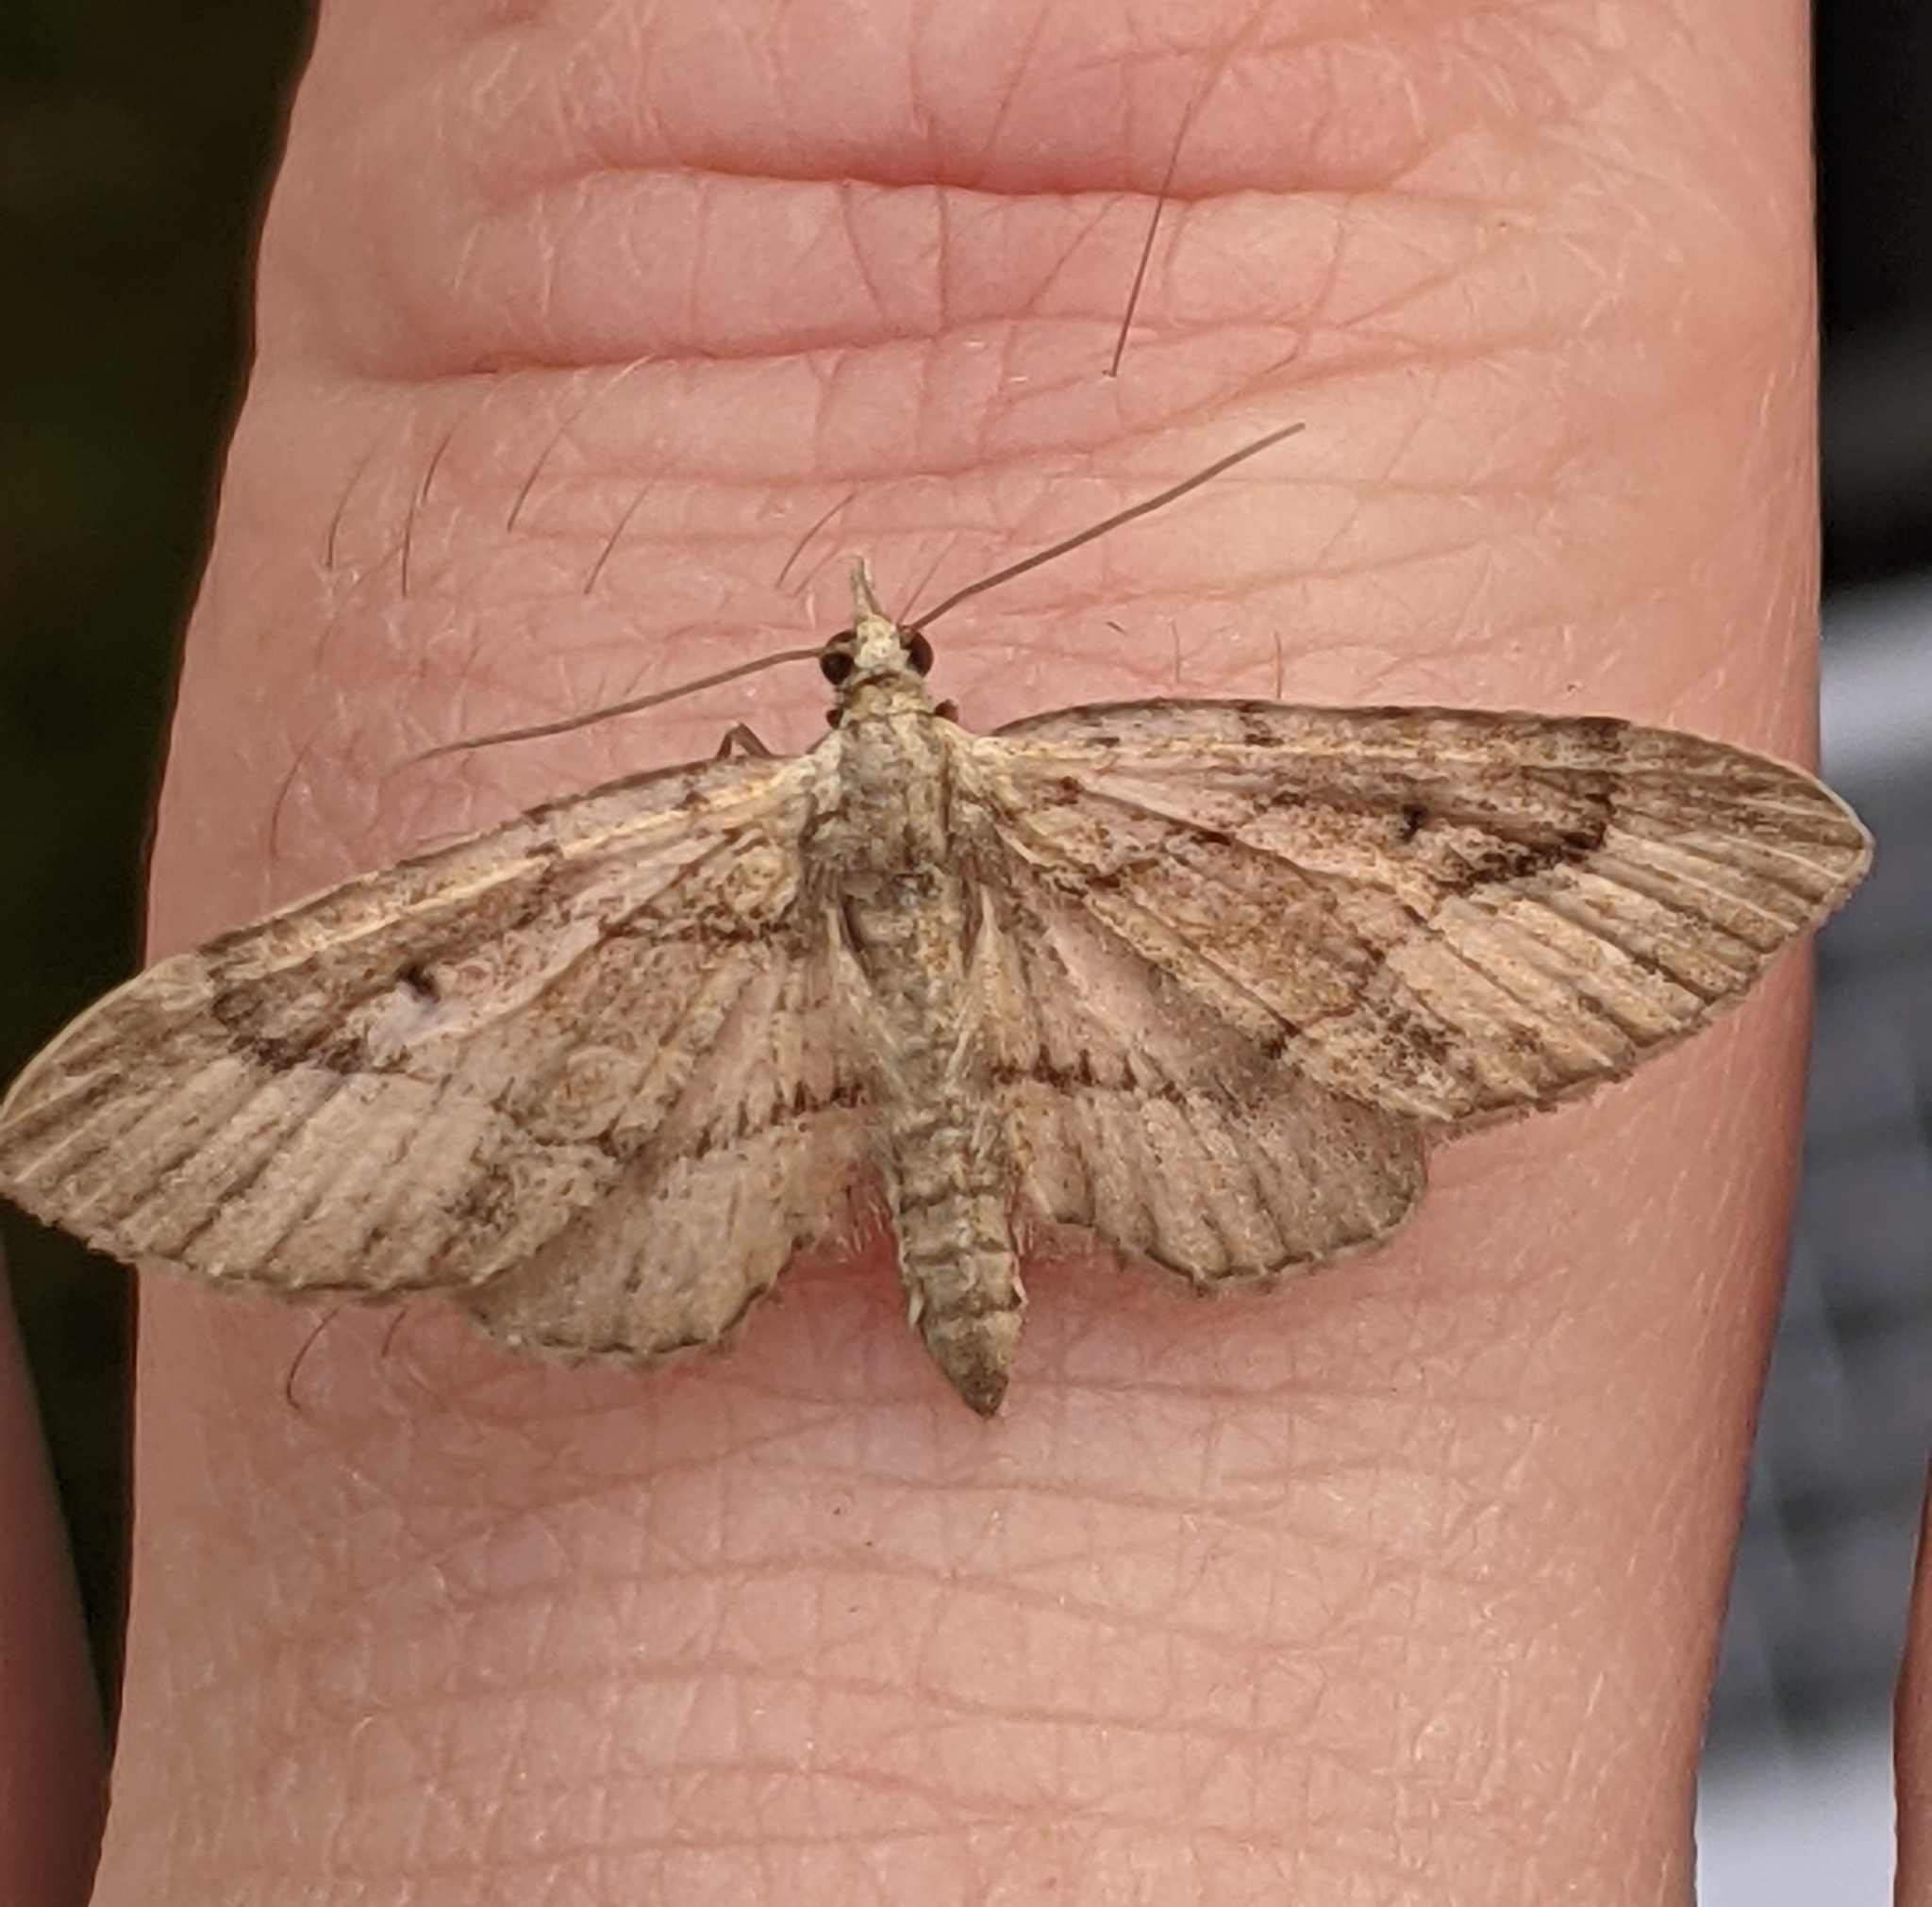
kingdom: Animalia
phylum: Arthropoda
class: Insecta
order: Lepidoptera
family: Geometridae
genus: Eupithecia
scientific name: Eupithecia unicolor
